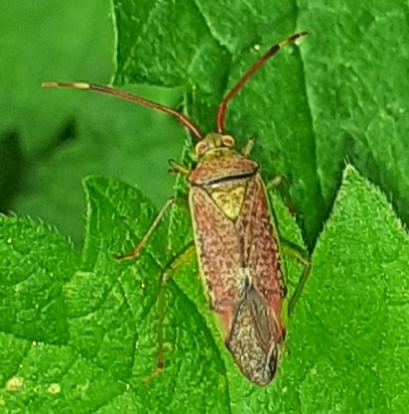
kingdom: Animalia
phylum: Arthropoda
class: Insecta
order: Hemiptera
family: Miridae
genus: Pantilius
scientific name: Pantilius tunicatus
